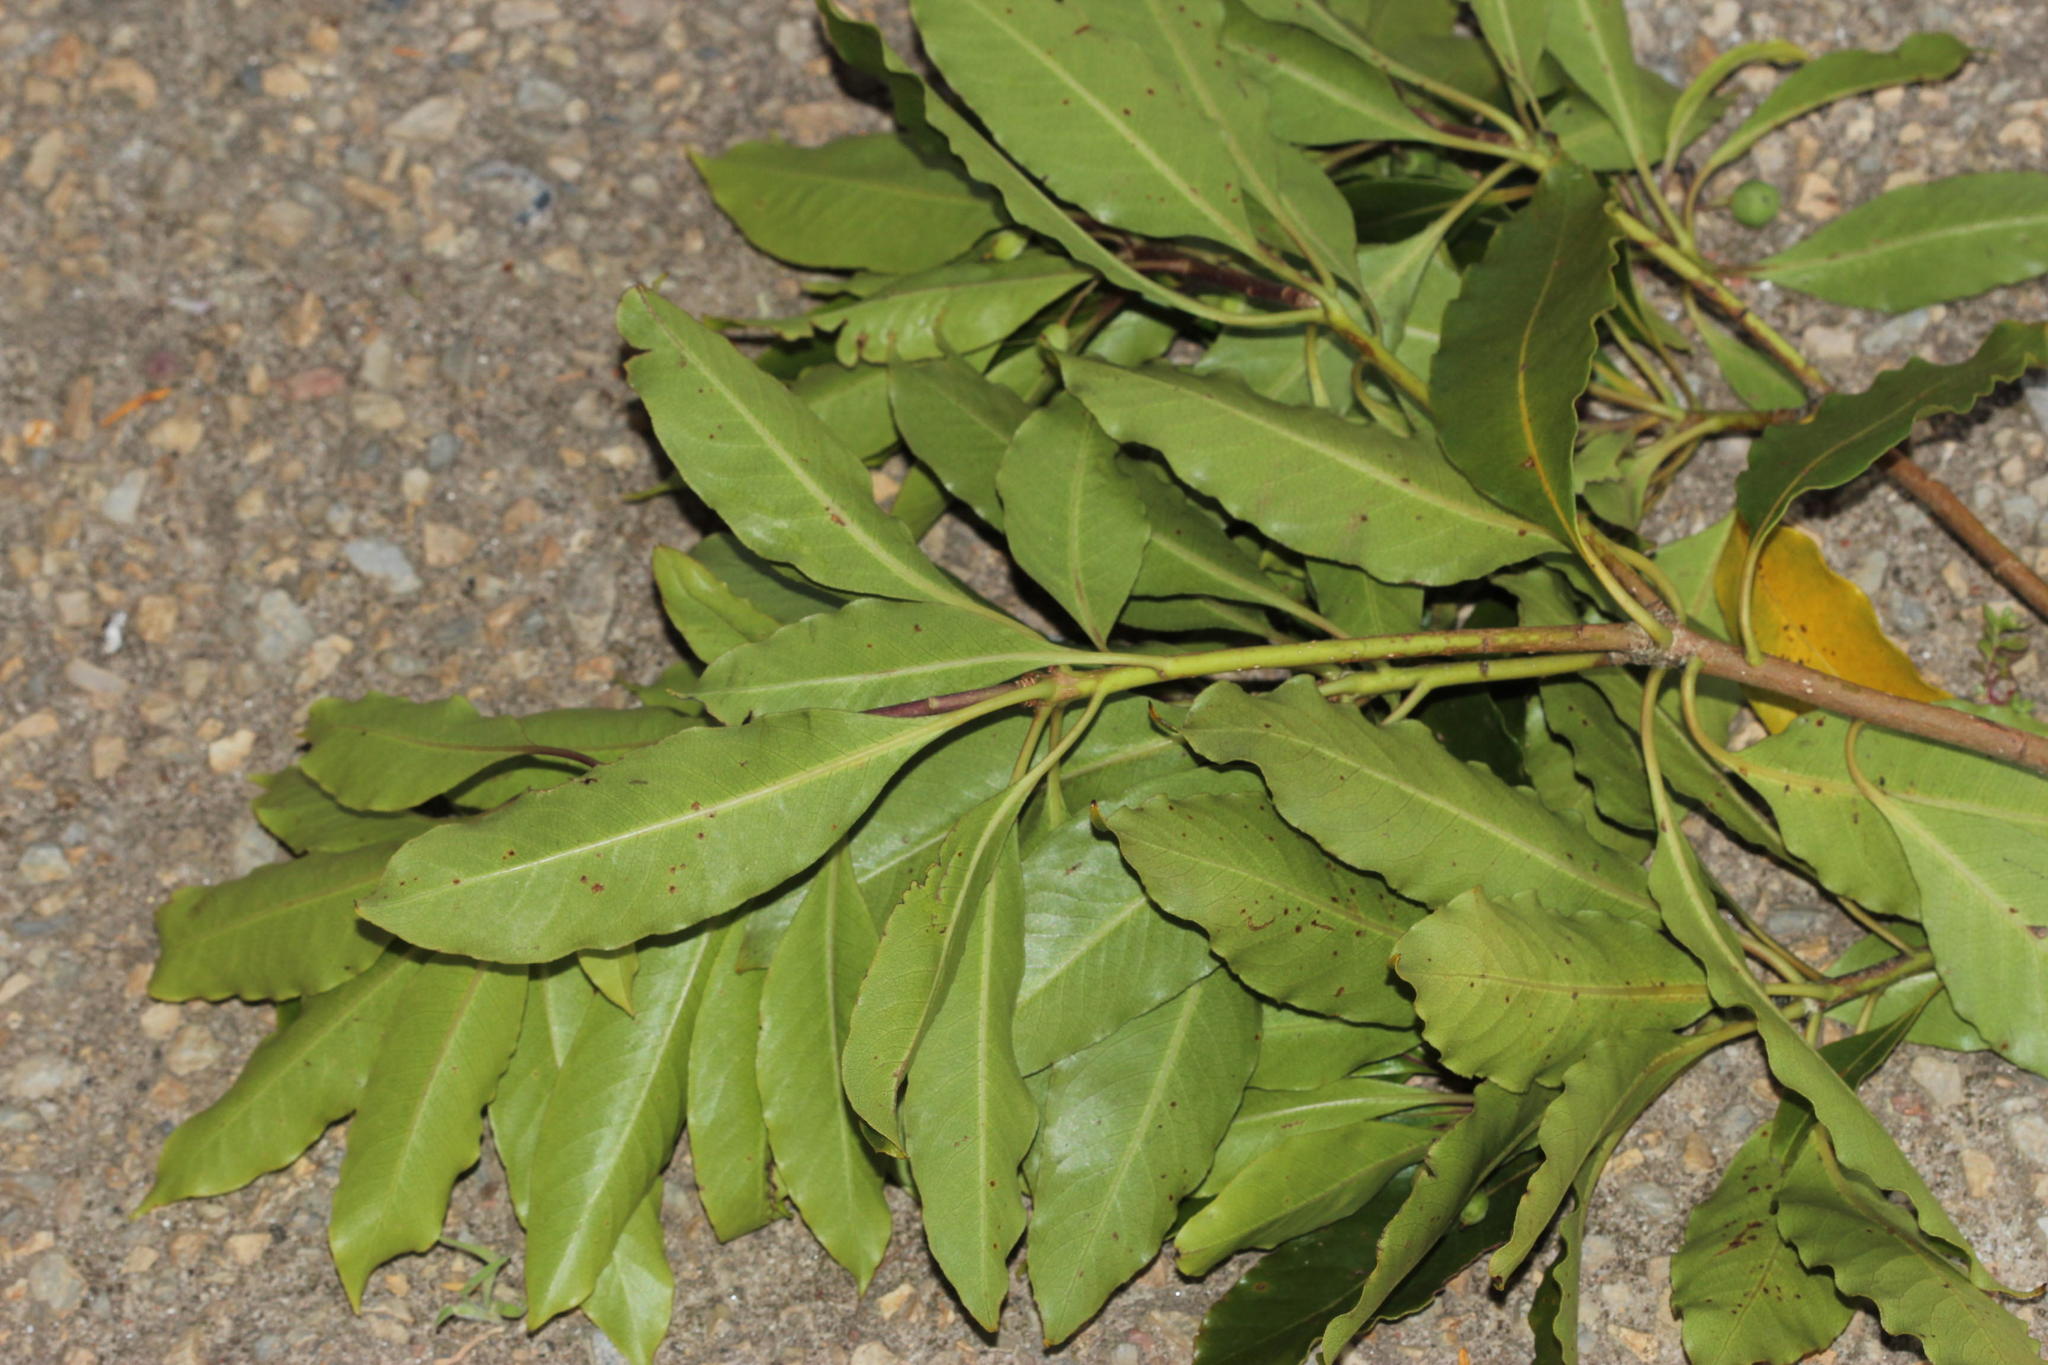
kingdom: Plantae
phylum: Tracheophyta
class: Magnoliopsida
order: Apiales
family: Pittosporaceae
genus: Pittosporum
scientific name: Pittosporum undulatum
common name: Australian cheesewood
